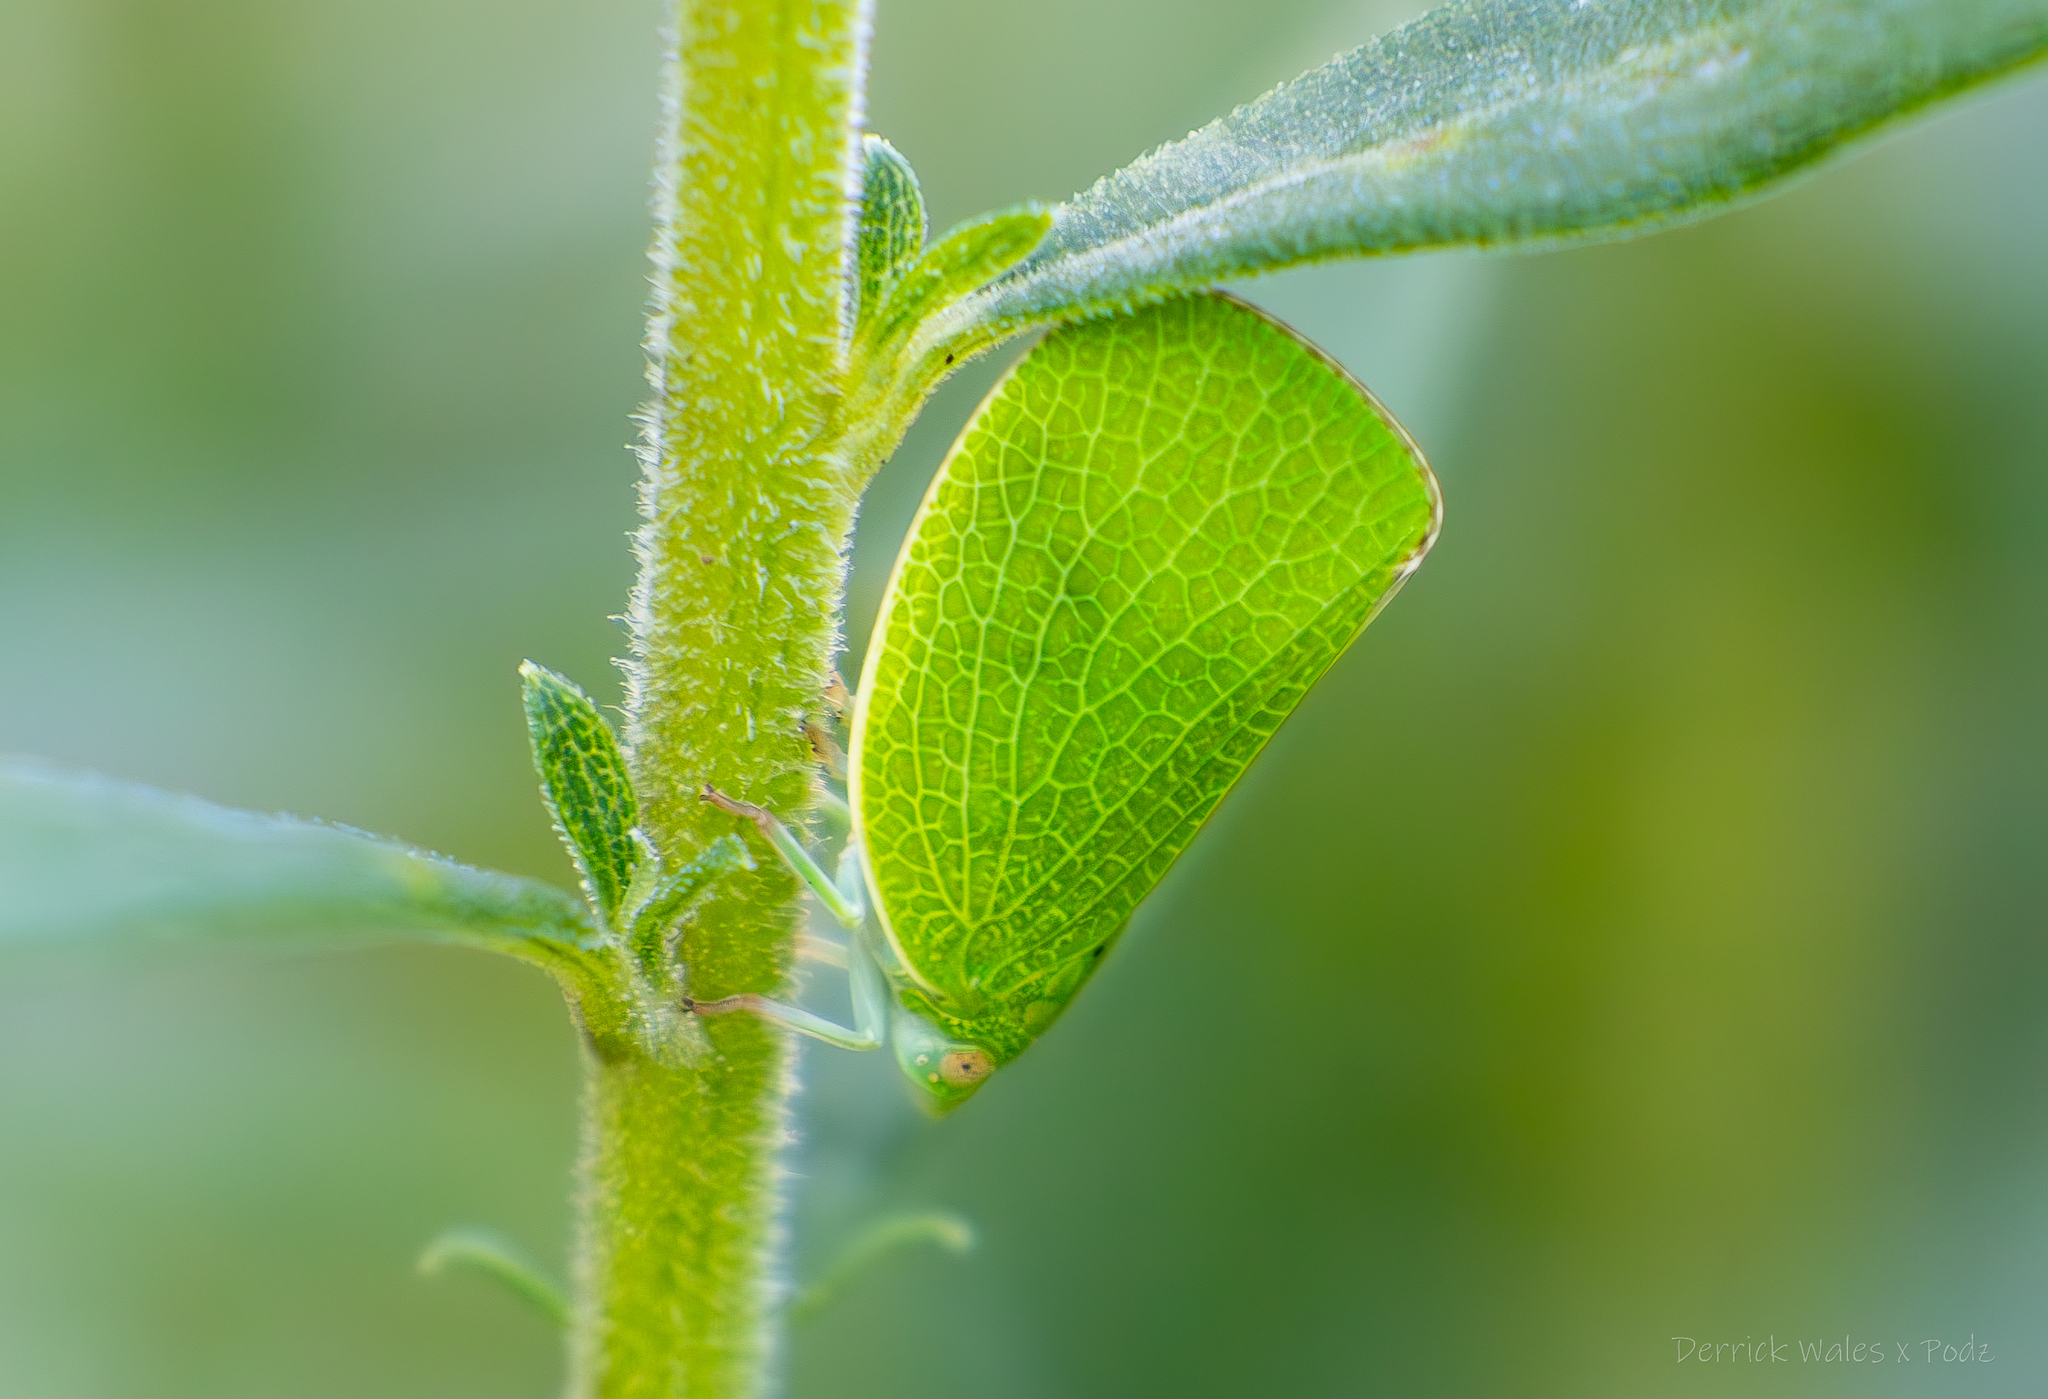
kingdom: Animalia
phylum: Arthropoda
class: Insecta
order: Hemiptera
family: Acanaloniidae
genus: Acanalonia
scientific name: Acanalonia conica
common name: Green cone-headed planthopper
